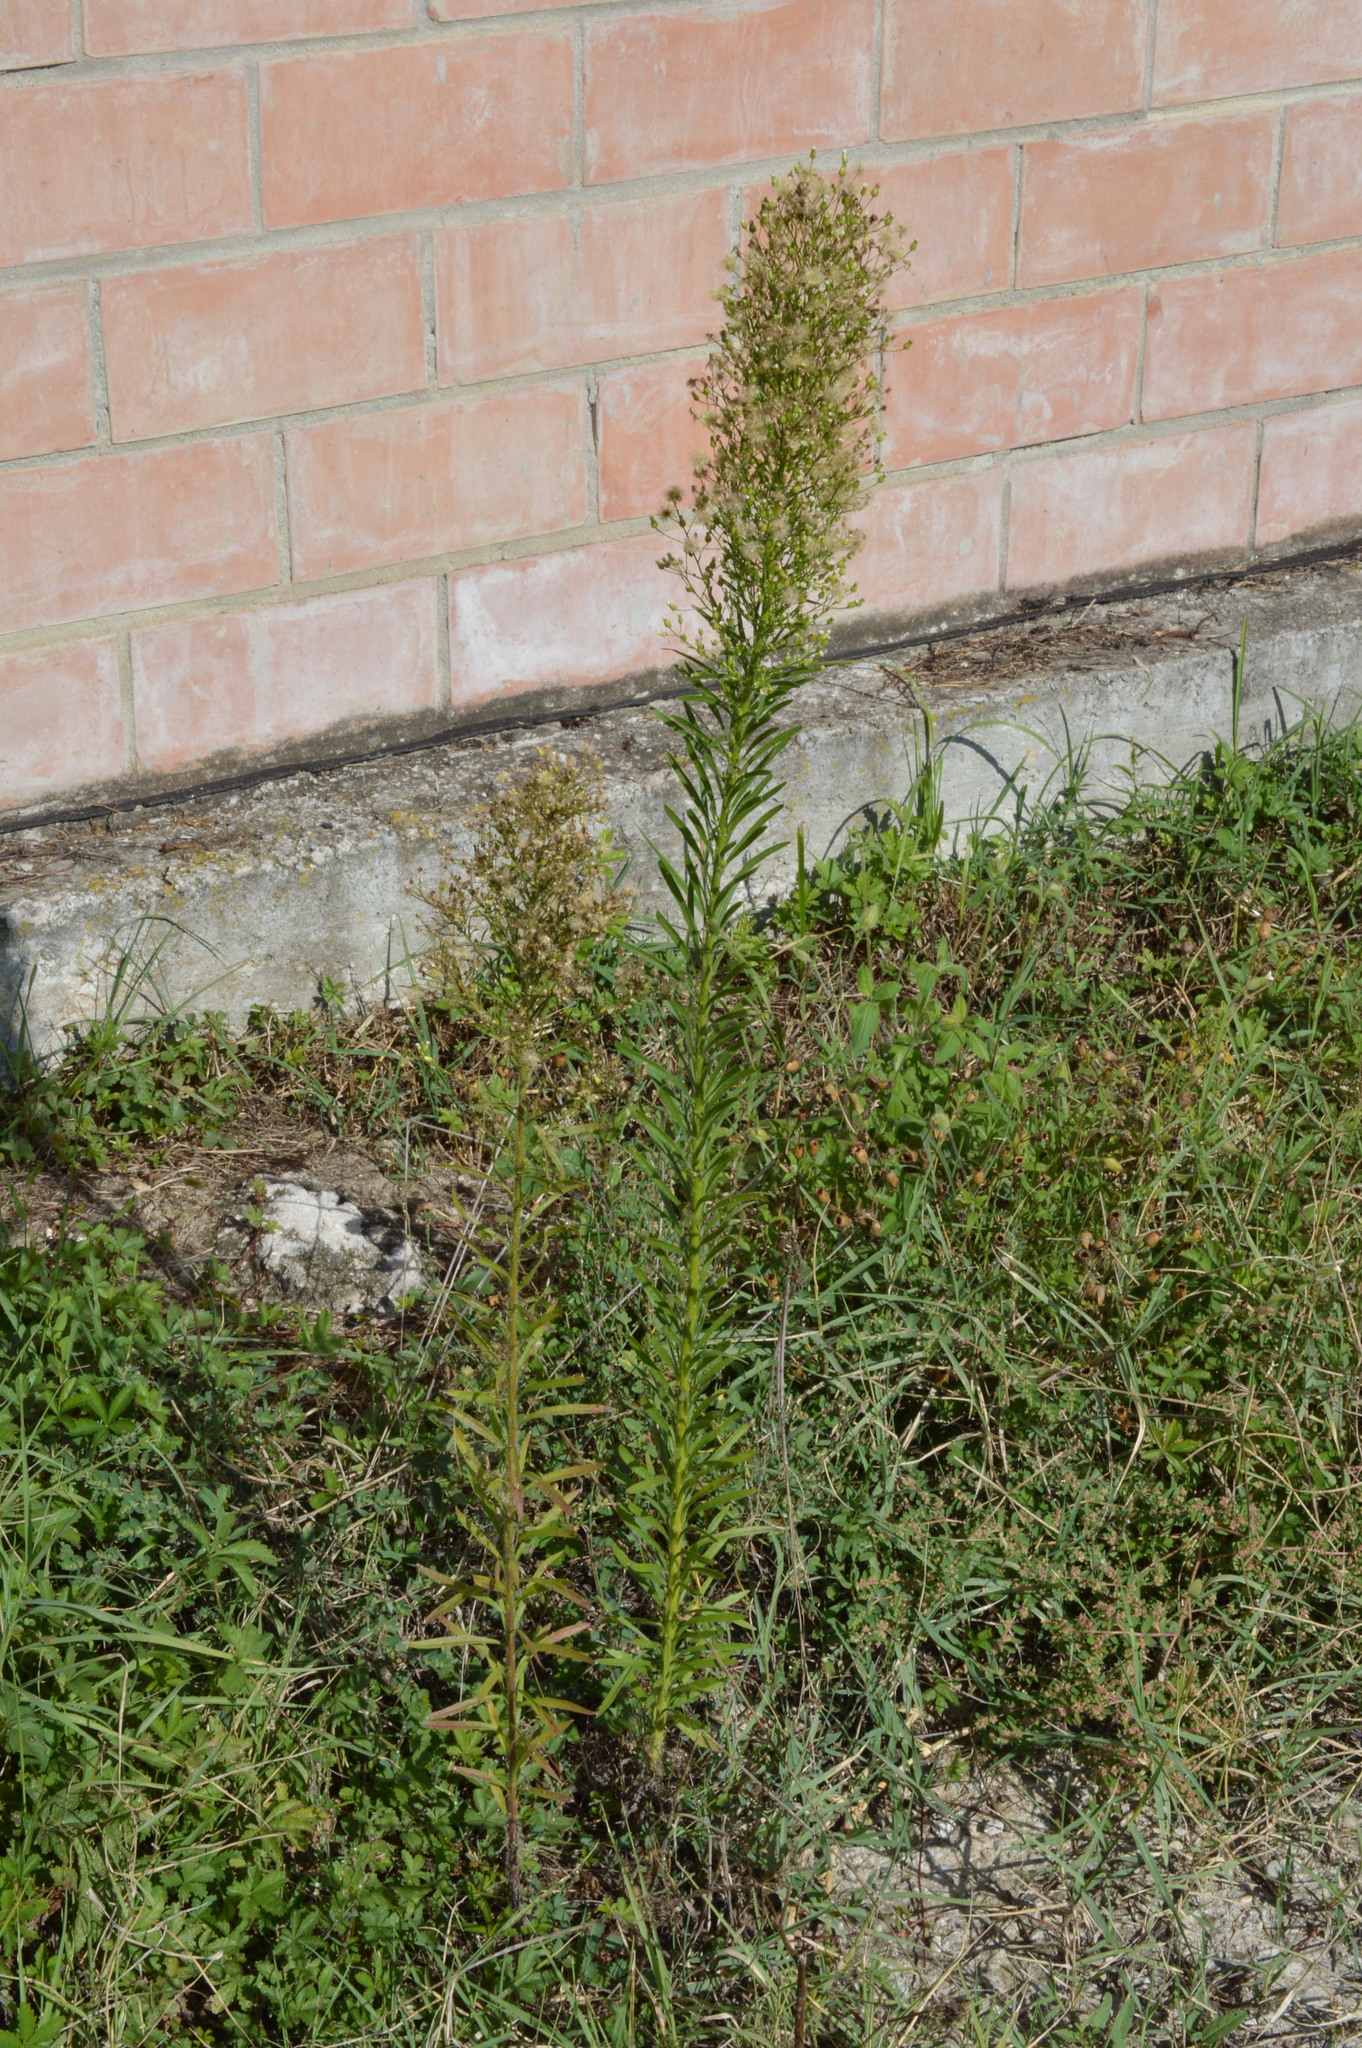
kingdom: Plantae
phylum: Tracheophyta
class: Magnoliopsida
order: Asterales
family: Asteraceae
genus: Erigeron
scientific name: Erigeron canadensis
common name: Canadian fleabane
